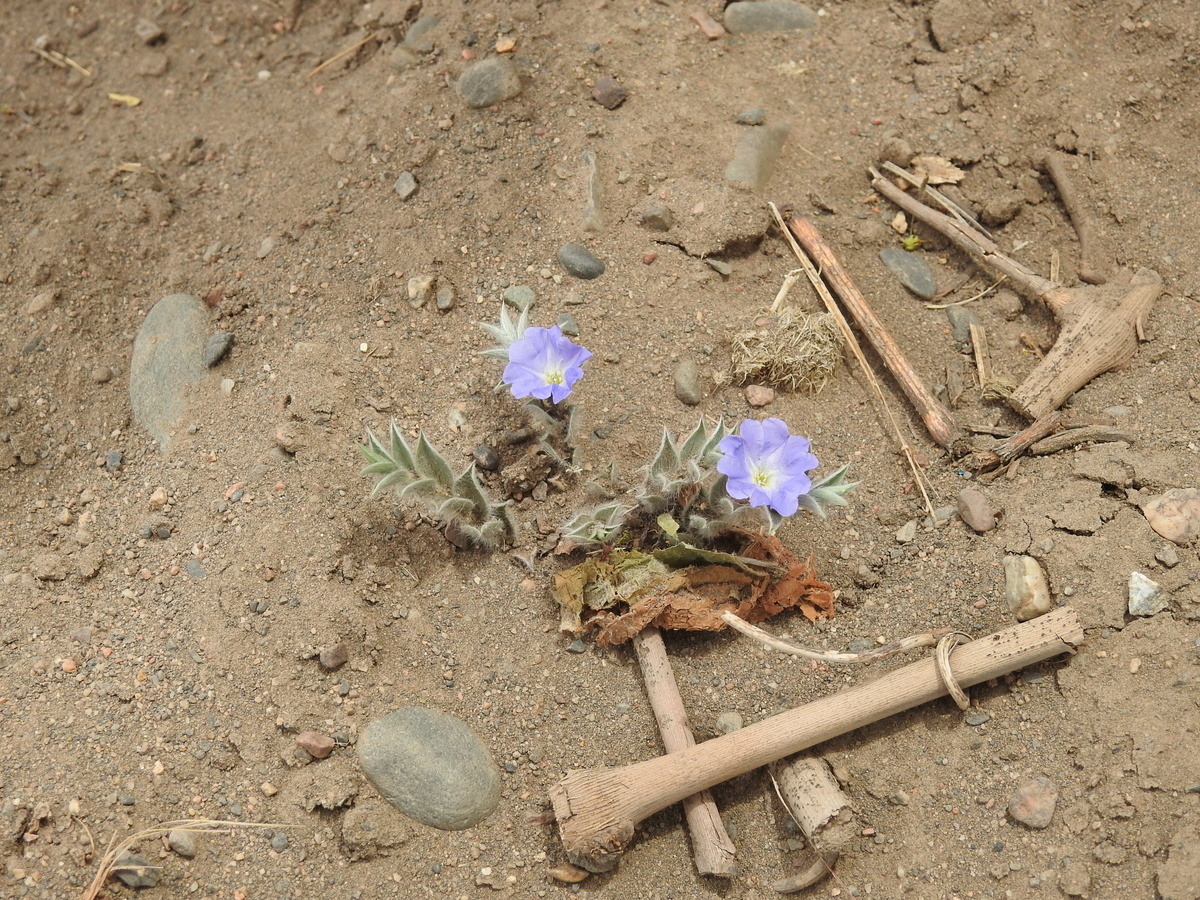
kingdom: Plantae
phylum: Tracheophyta
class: Magnoliopsida
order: Solanales
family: Convolvulaceae
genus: Evolvulus
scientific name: Evolvulus sericeus
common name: Blue dots
